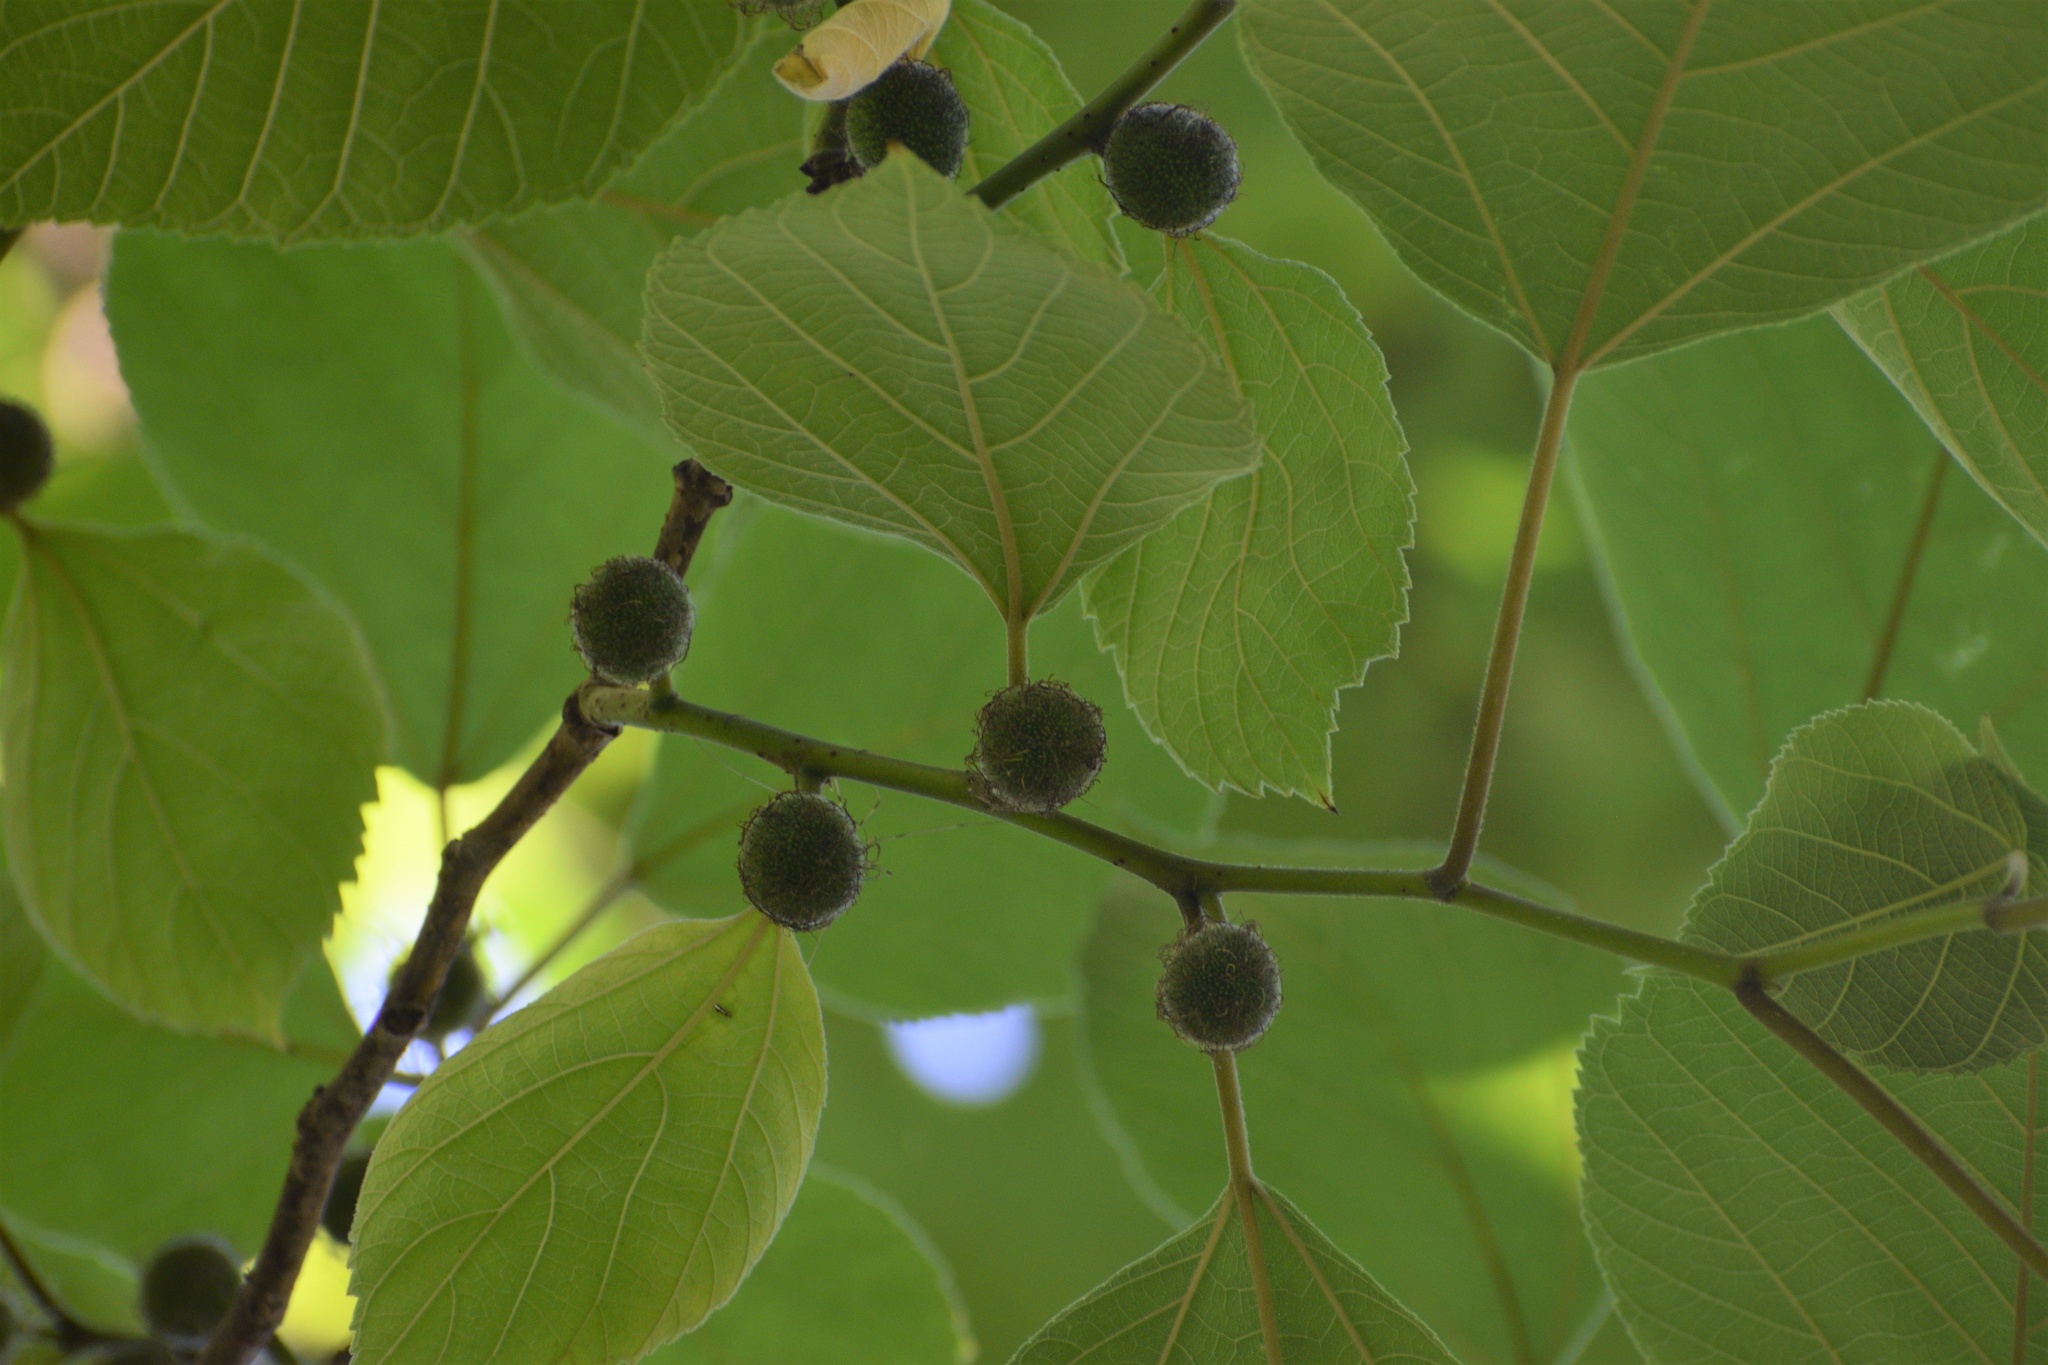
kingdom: Plantae
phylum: Tracheophyta
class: Magnoliopsida
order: Rosales
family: Moraceae
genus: Broussonetia
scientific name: Broussonetia papyrifera
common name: Paper mulberry
